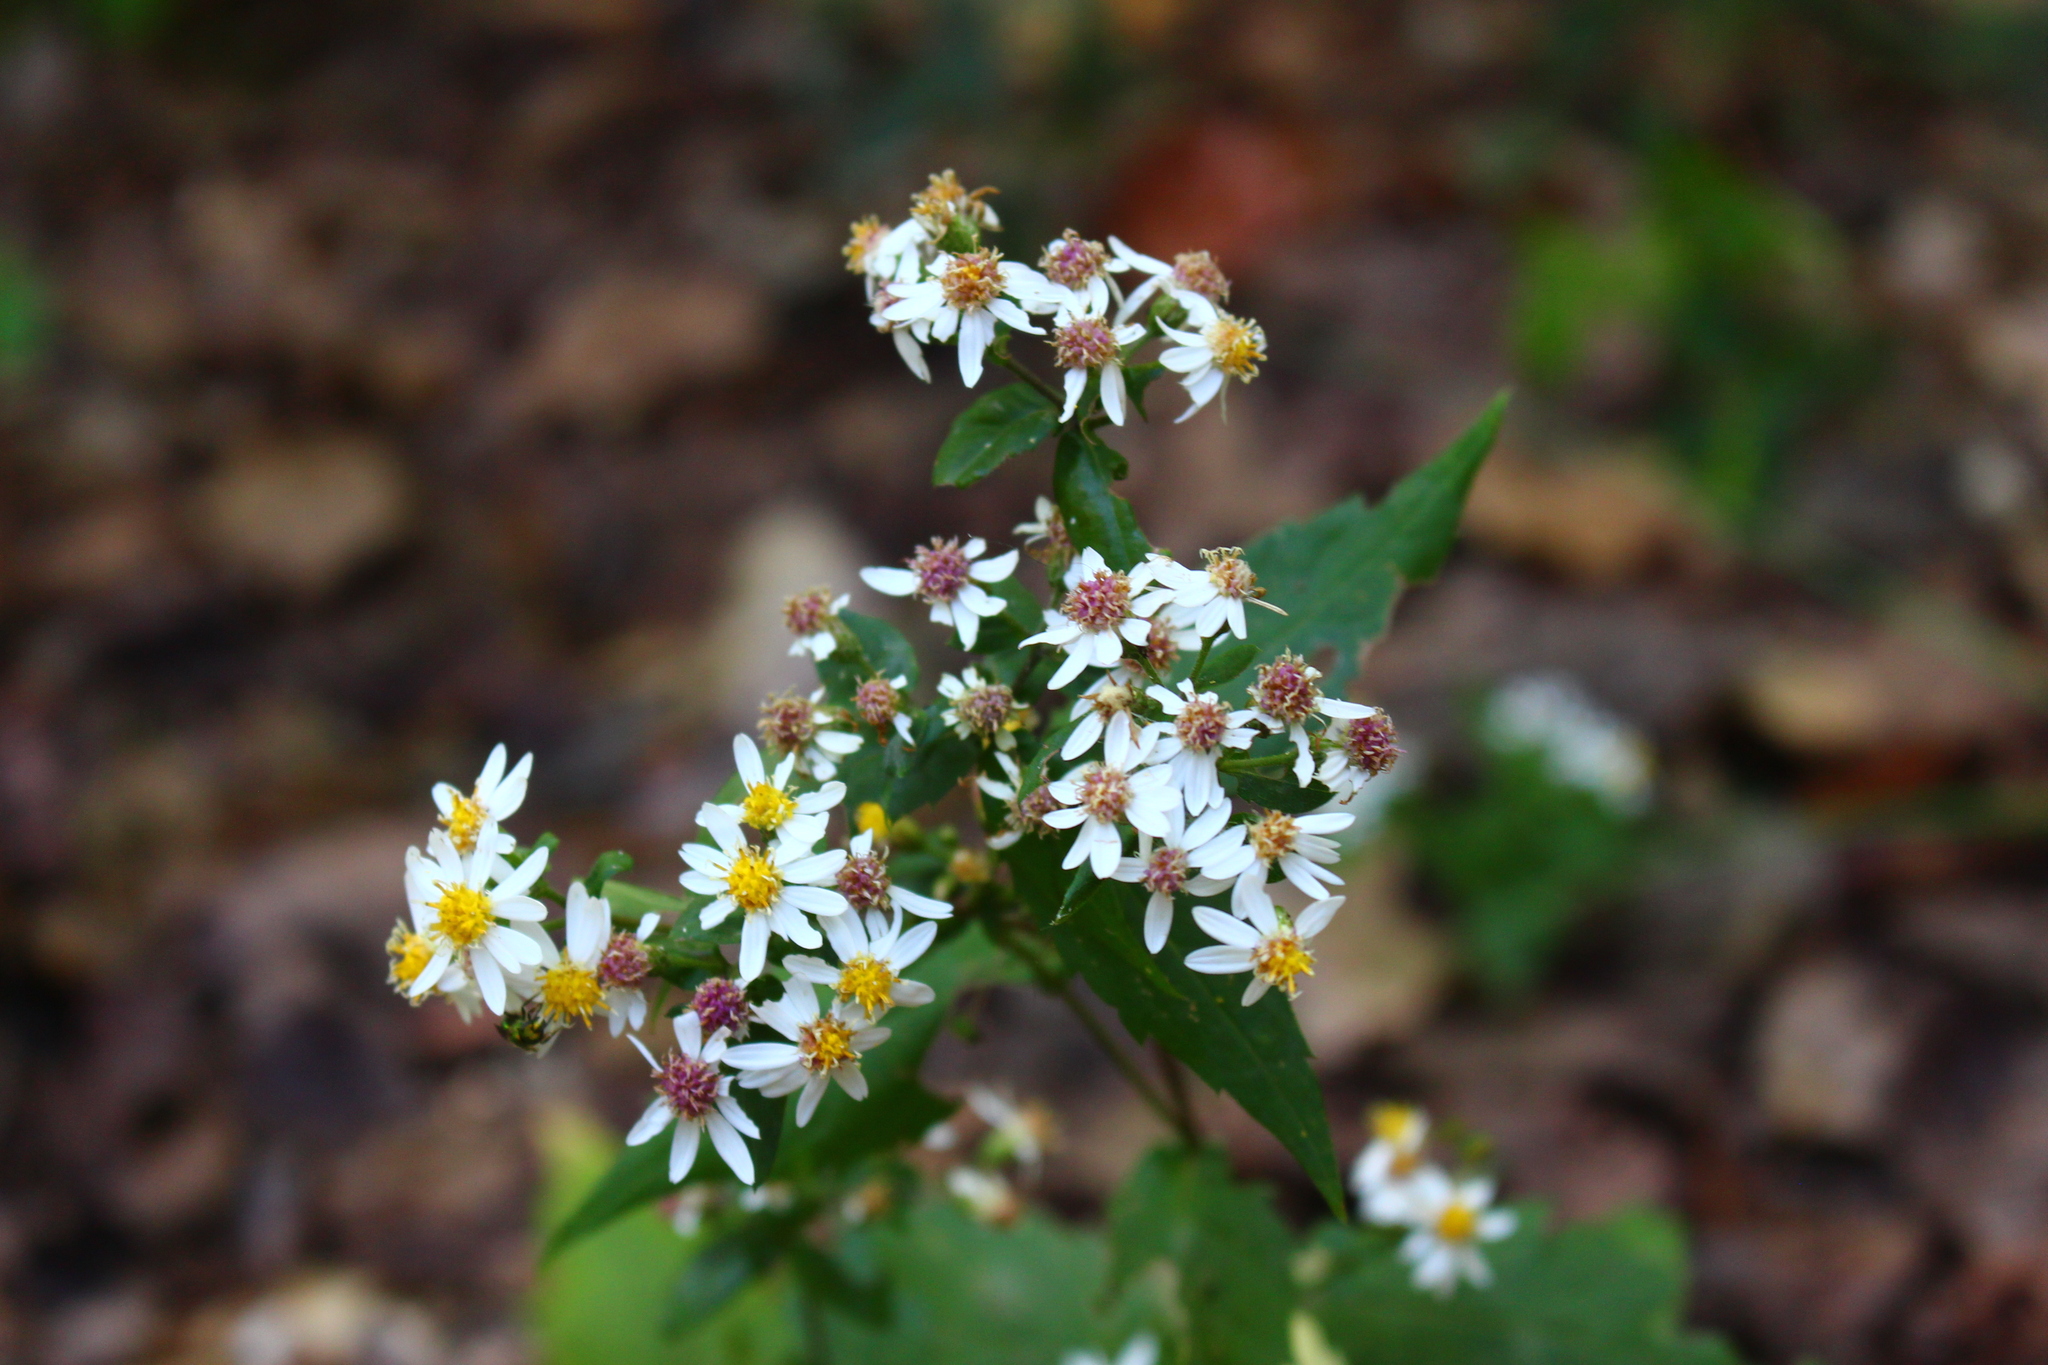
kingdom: Plantae
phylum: Tracheophyta
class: Magnoliopsida
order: Asterales
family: Asteraceae
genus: Eurybia
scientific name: Eurybia divaricata
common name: White wood aster
